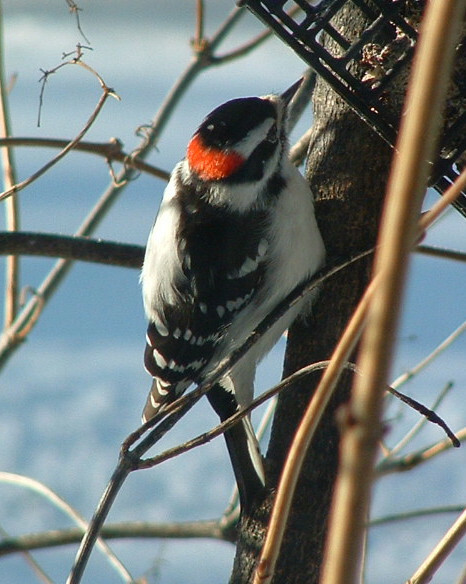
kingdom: Animalia
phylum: Chordata
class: Aves
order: Piciformes
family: Picidae
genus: Dryobates
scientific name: Dryobates pubescens
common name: Downy woodpecker
